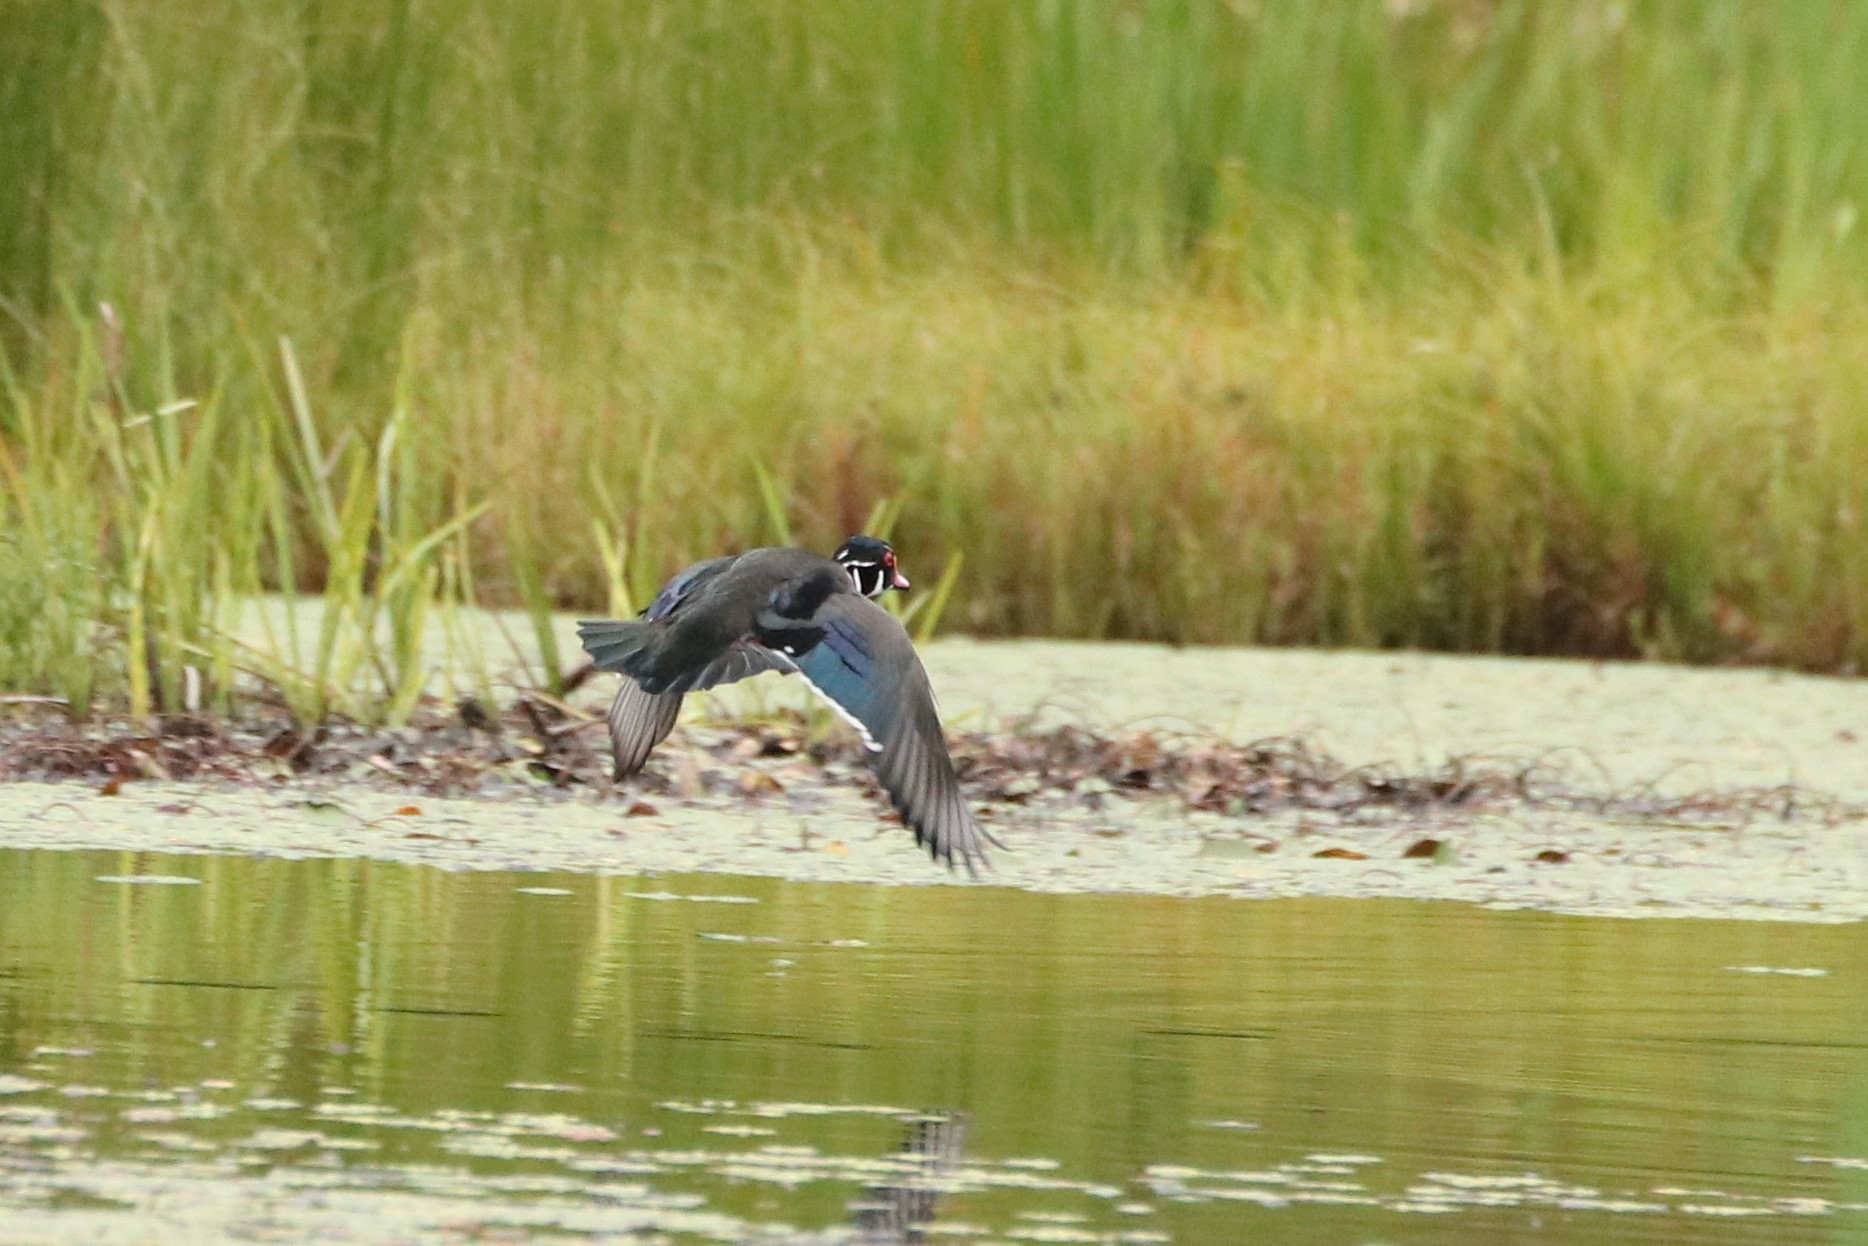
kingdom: Animalia
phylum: Chordata
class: Aves
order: Anseriformes
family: Anatidae
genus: Aix
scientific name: Aix sponsa
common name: Wood duck
